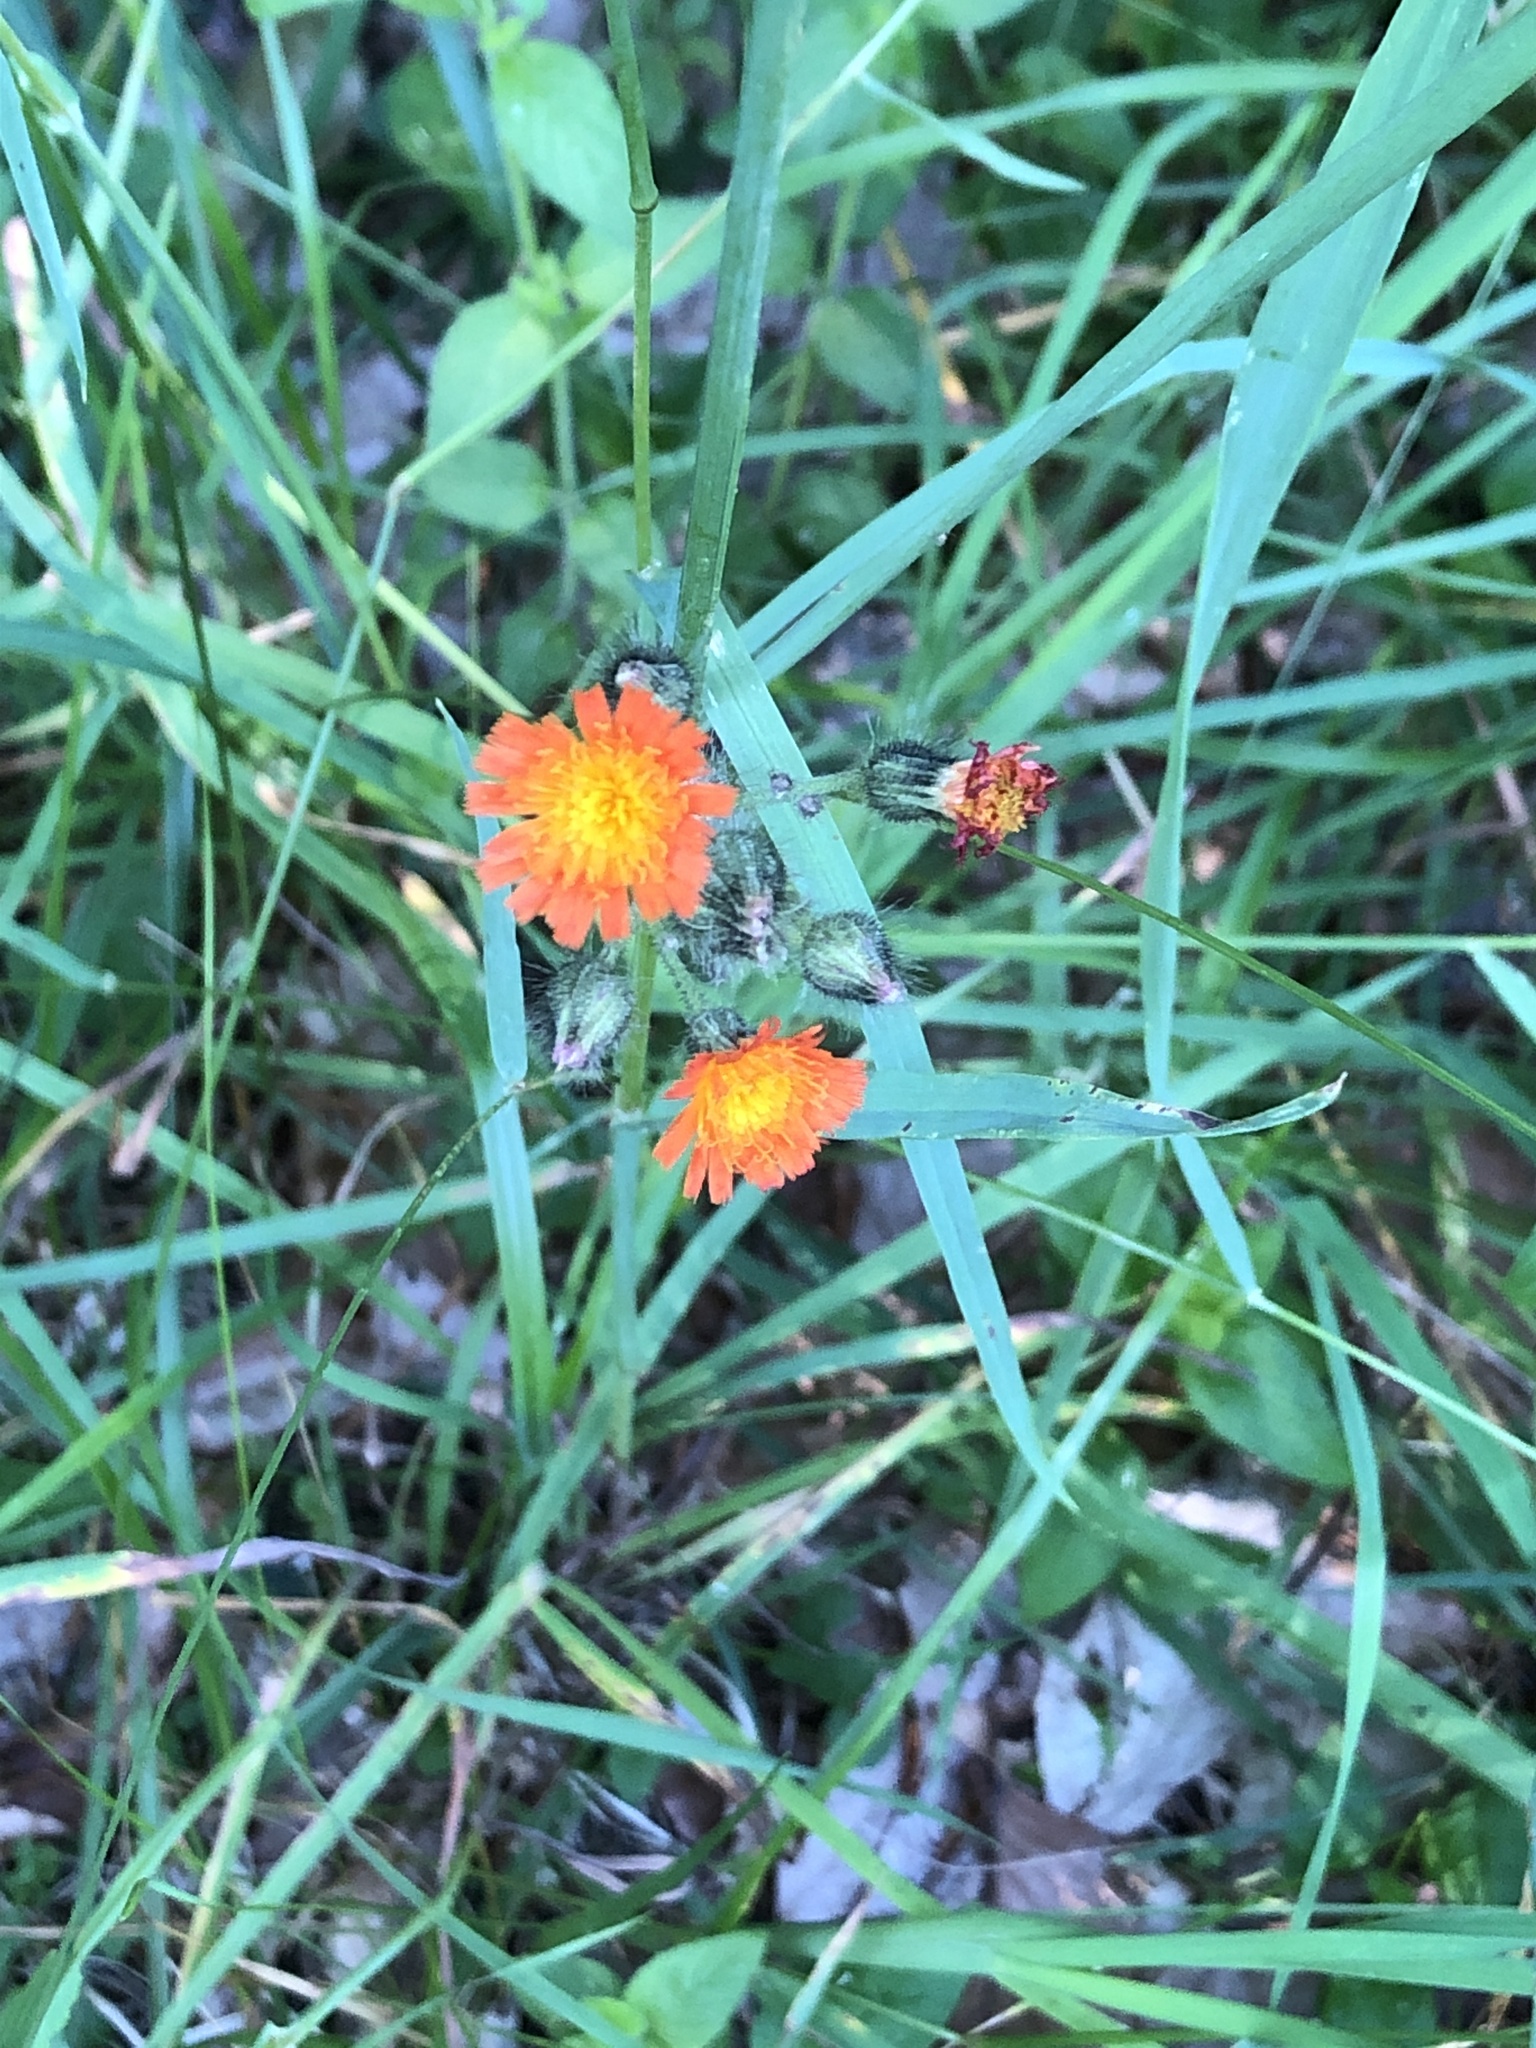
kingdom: Plantae
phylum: Tracheophyta
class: Magnoliopsida
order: Asterales
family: Asteraceae
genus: Pilosella
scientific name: Pilosella aurantiaca
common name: Fox-and-cubs
